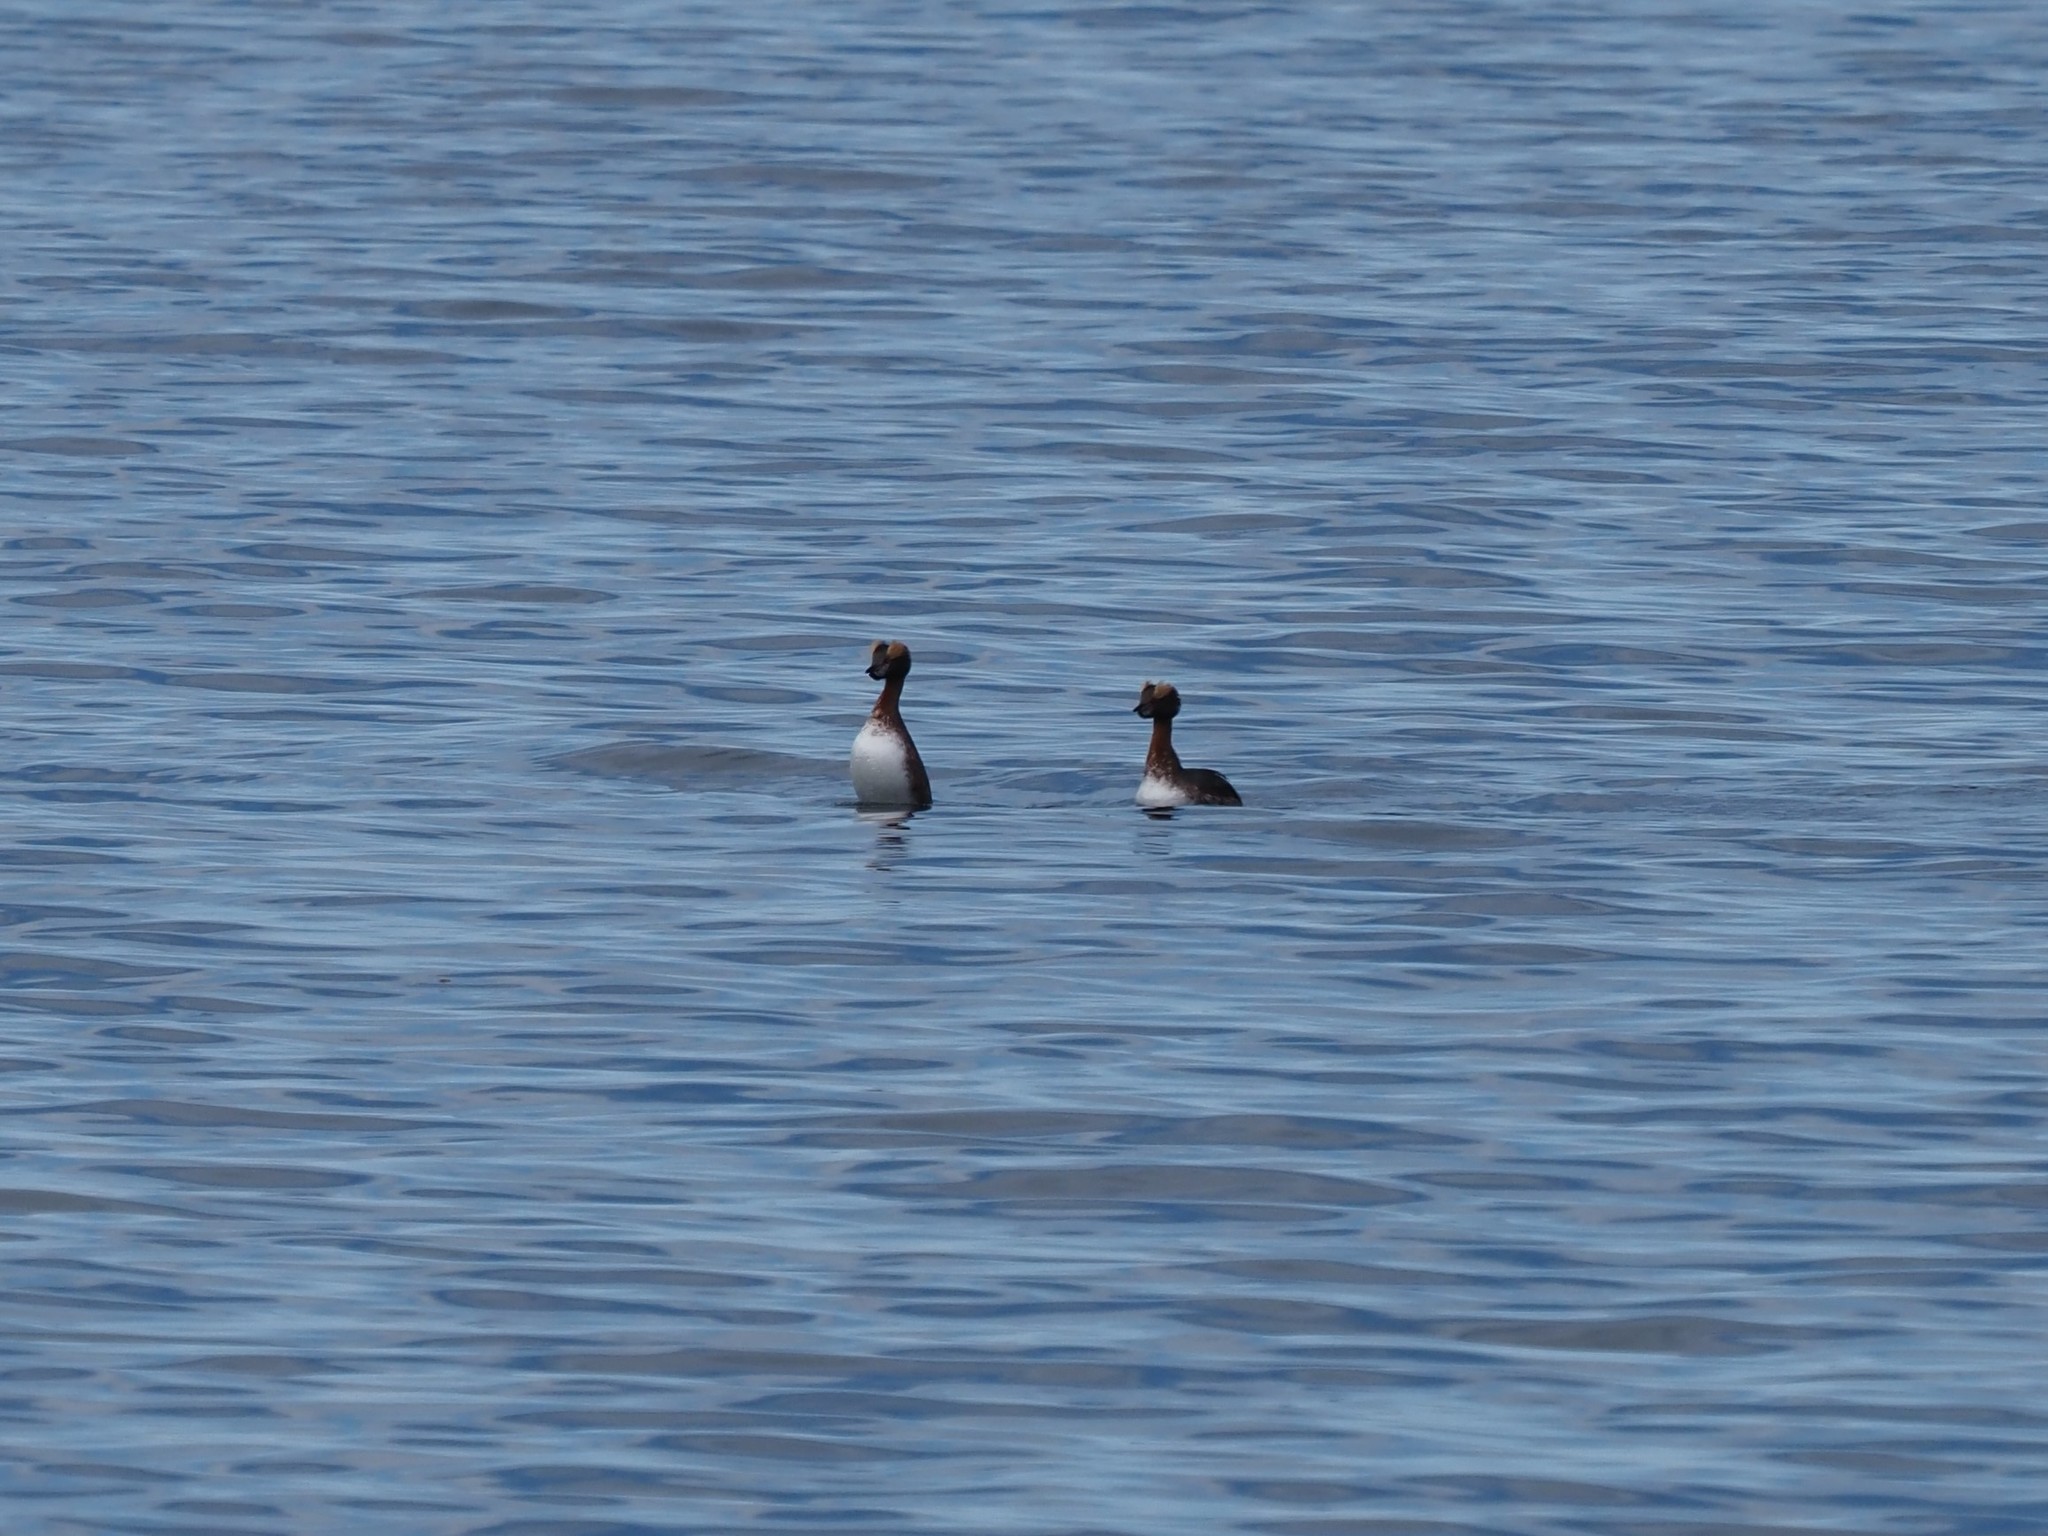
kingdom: Animalia
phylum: Chordata
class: Aves
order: Podicipediformes
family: Podicipedidae
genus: Podiceps
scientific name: Podiceps auritus
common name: Horned grebe
